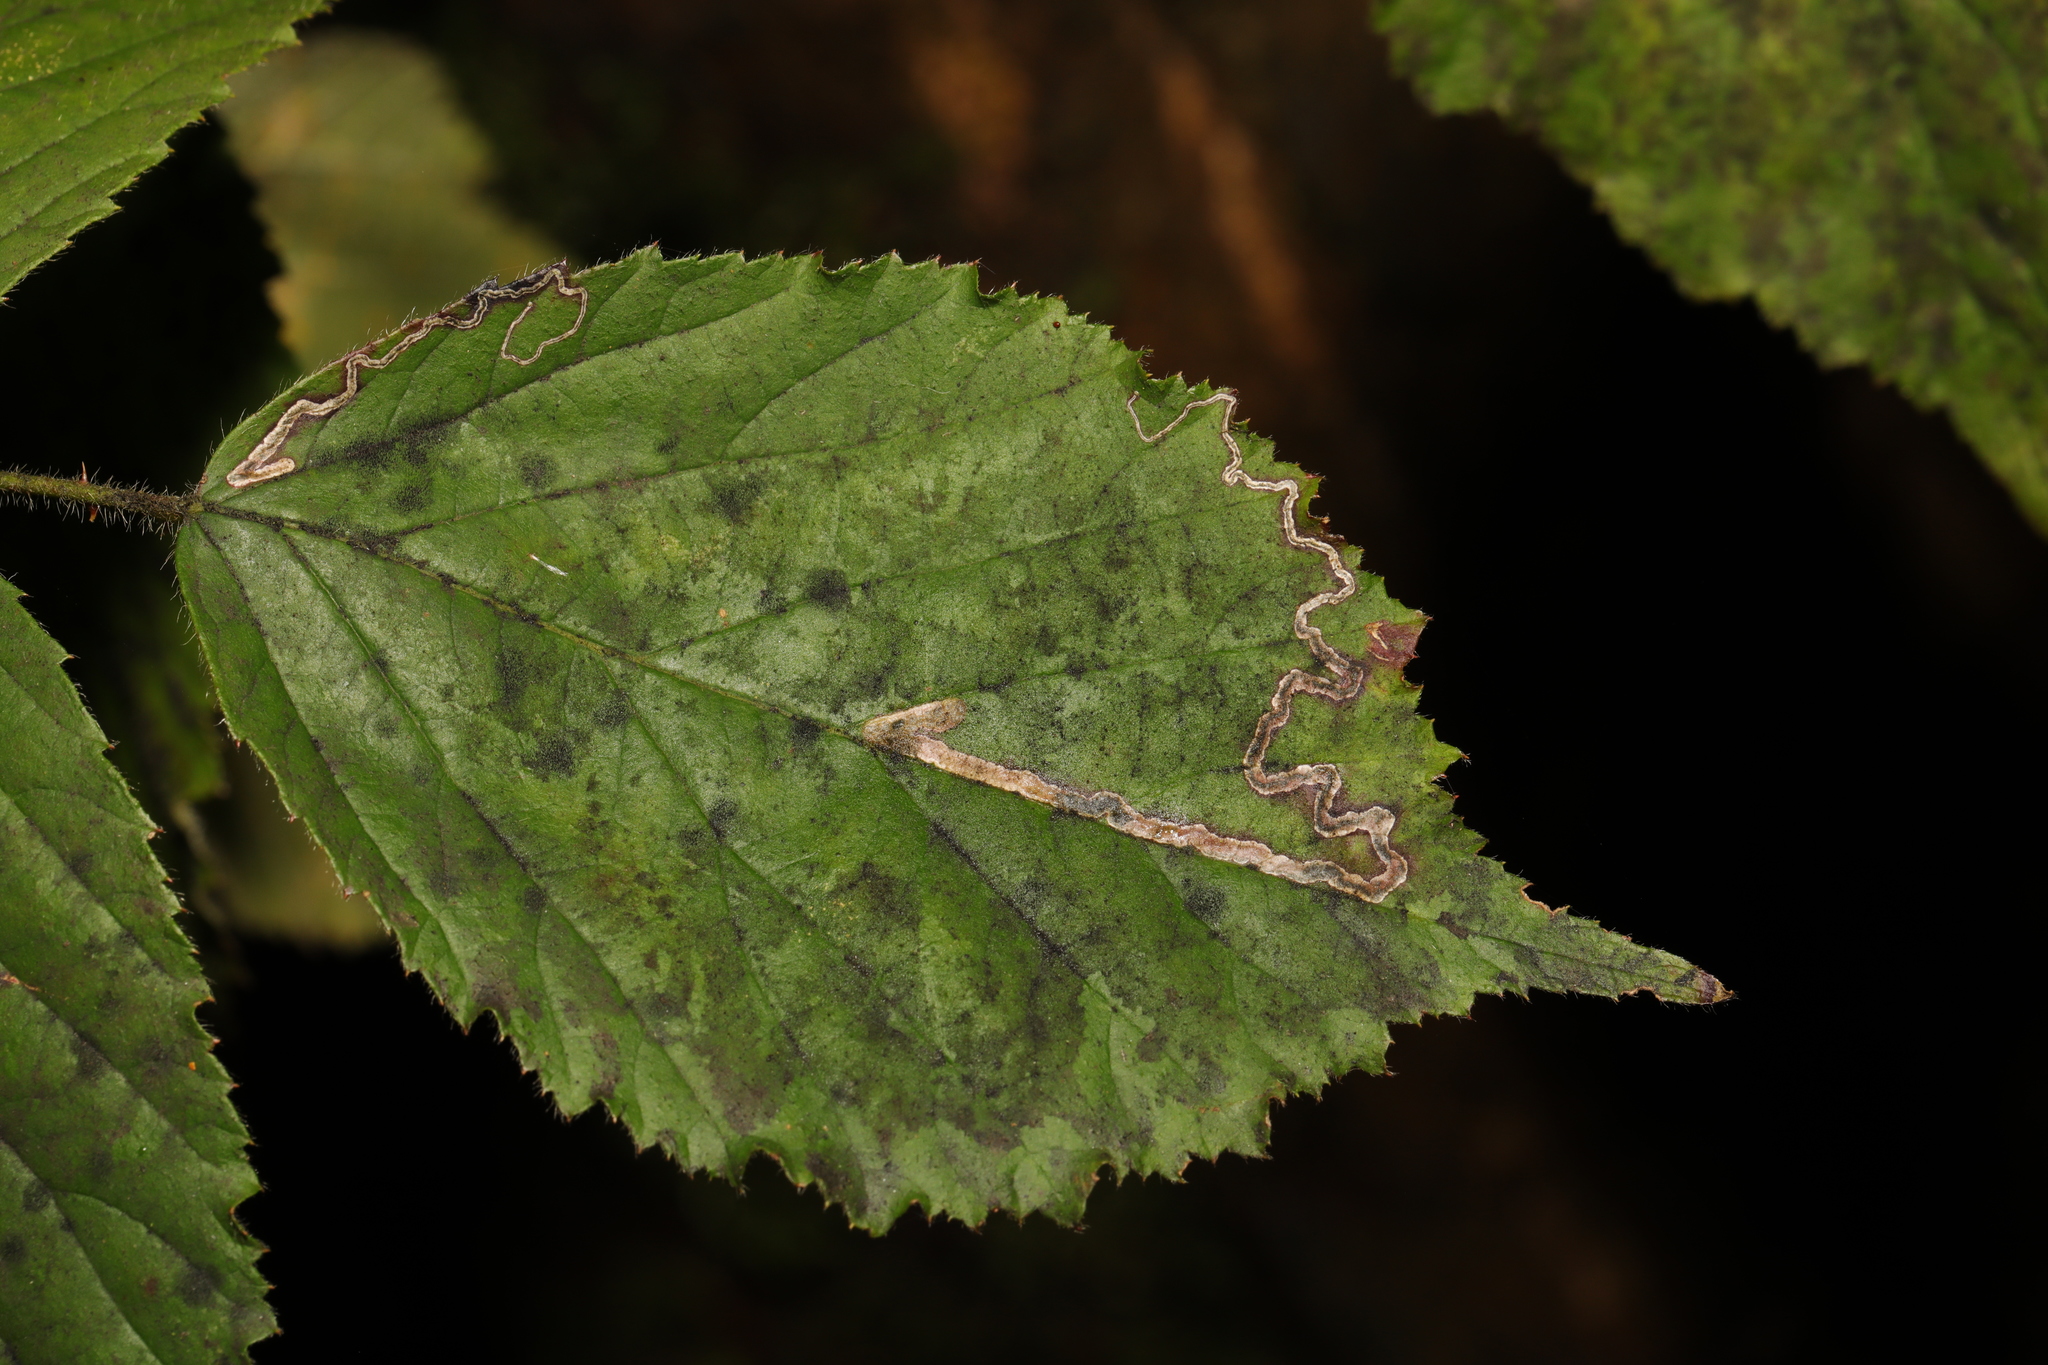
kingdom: Animalia
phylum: Arthropoda
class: Insecta
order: Lepidoptera
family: Nepticulidae
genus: Stigmella
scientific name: Stigmella aurella
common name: Golden pigmy
